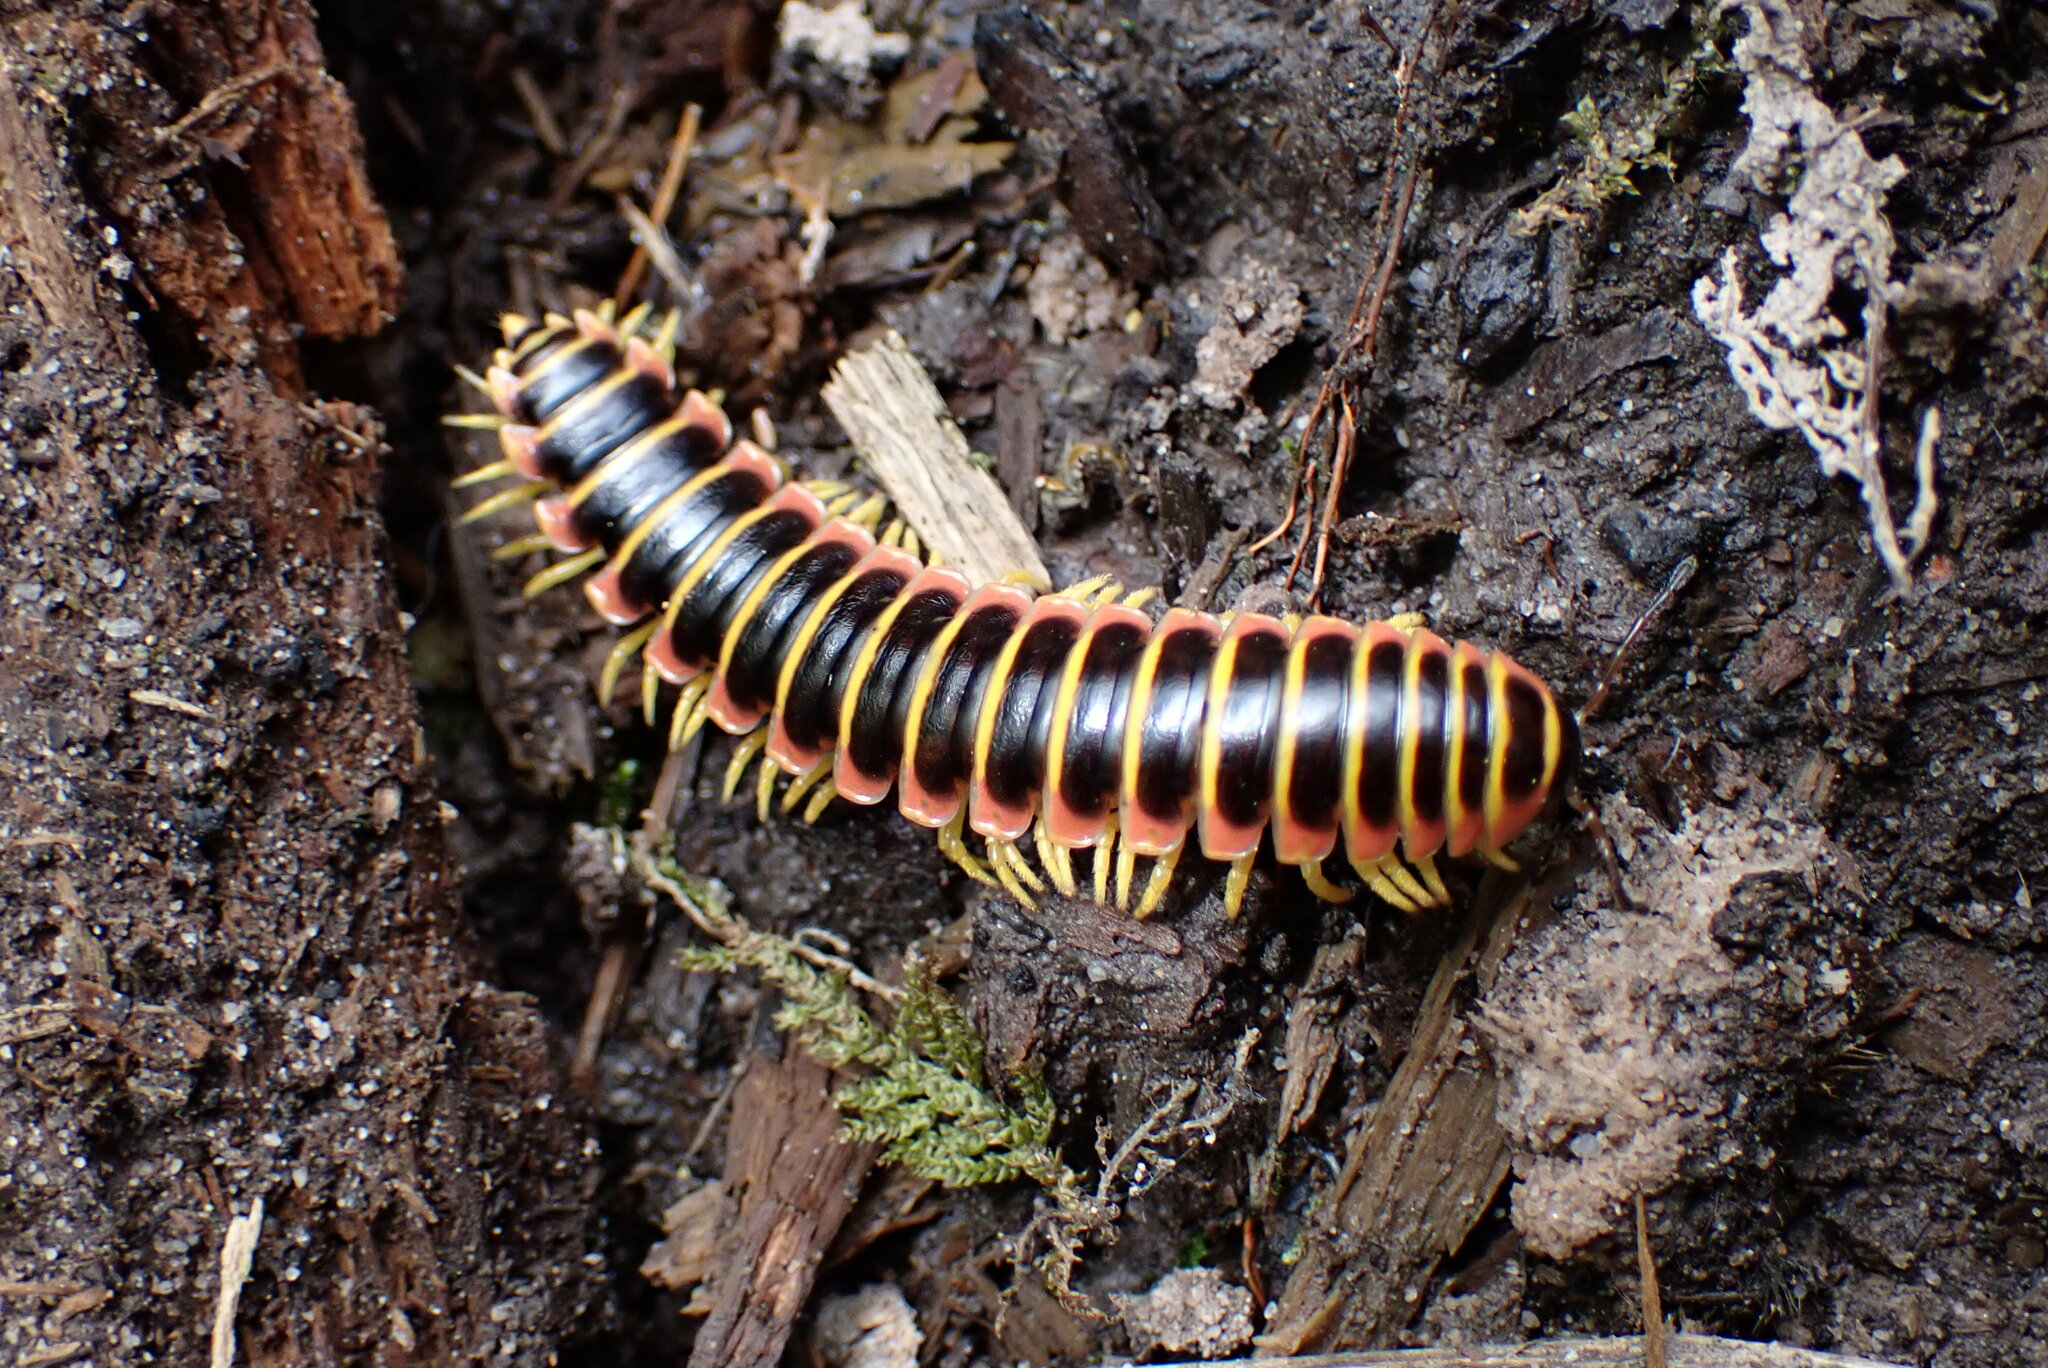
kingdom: Animalia
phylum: Arthropoda
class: Diplopoda
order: Polydesmida
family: Xystodesmidae
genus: Apheloria
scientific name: Apheloria virginiensis
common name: Black-and-gold flat millipede
